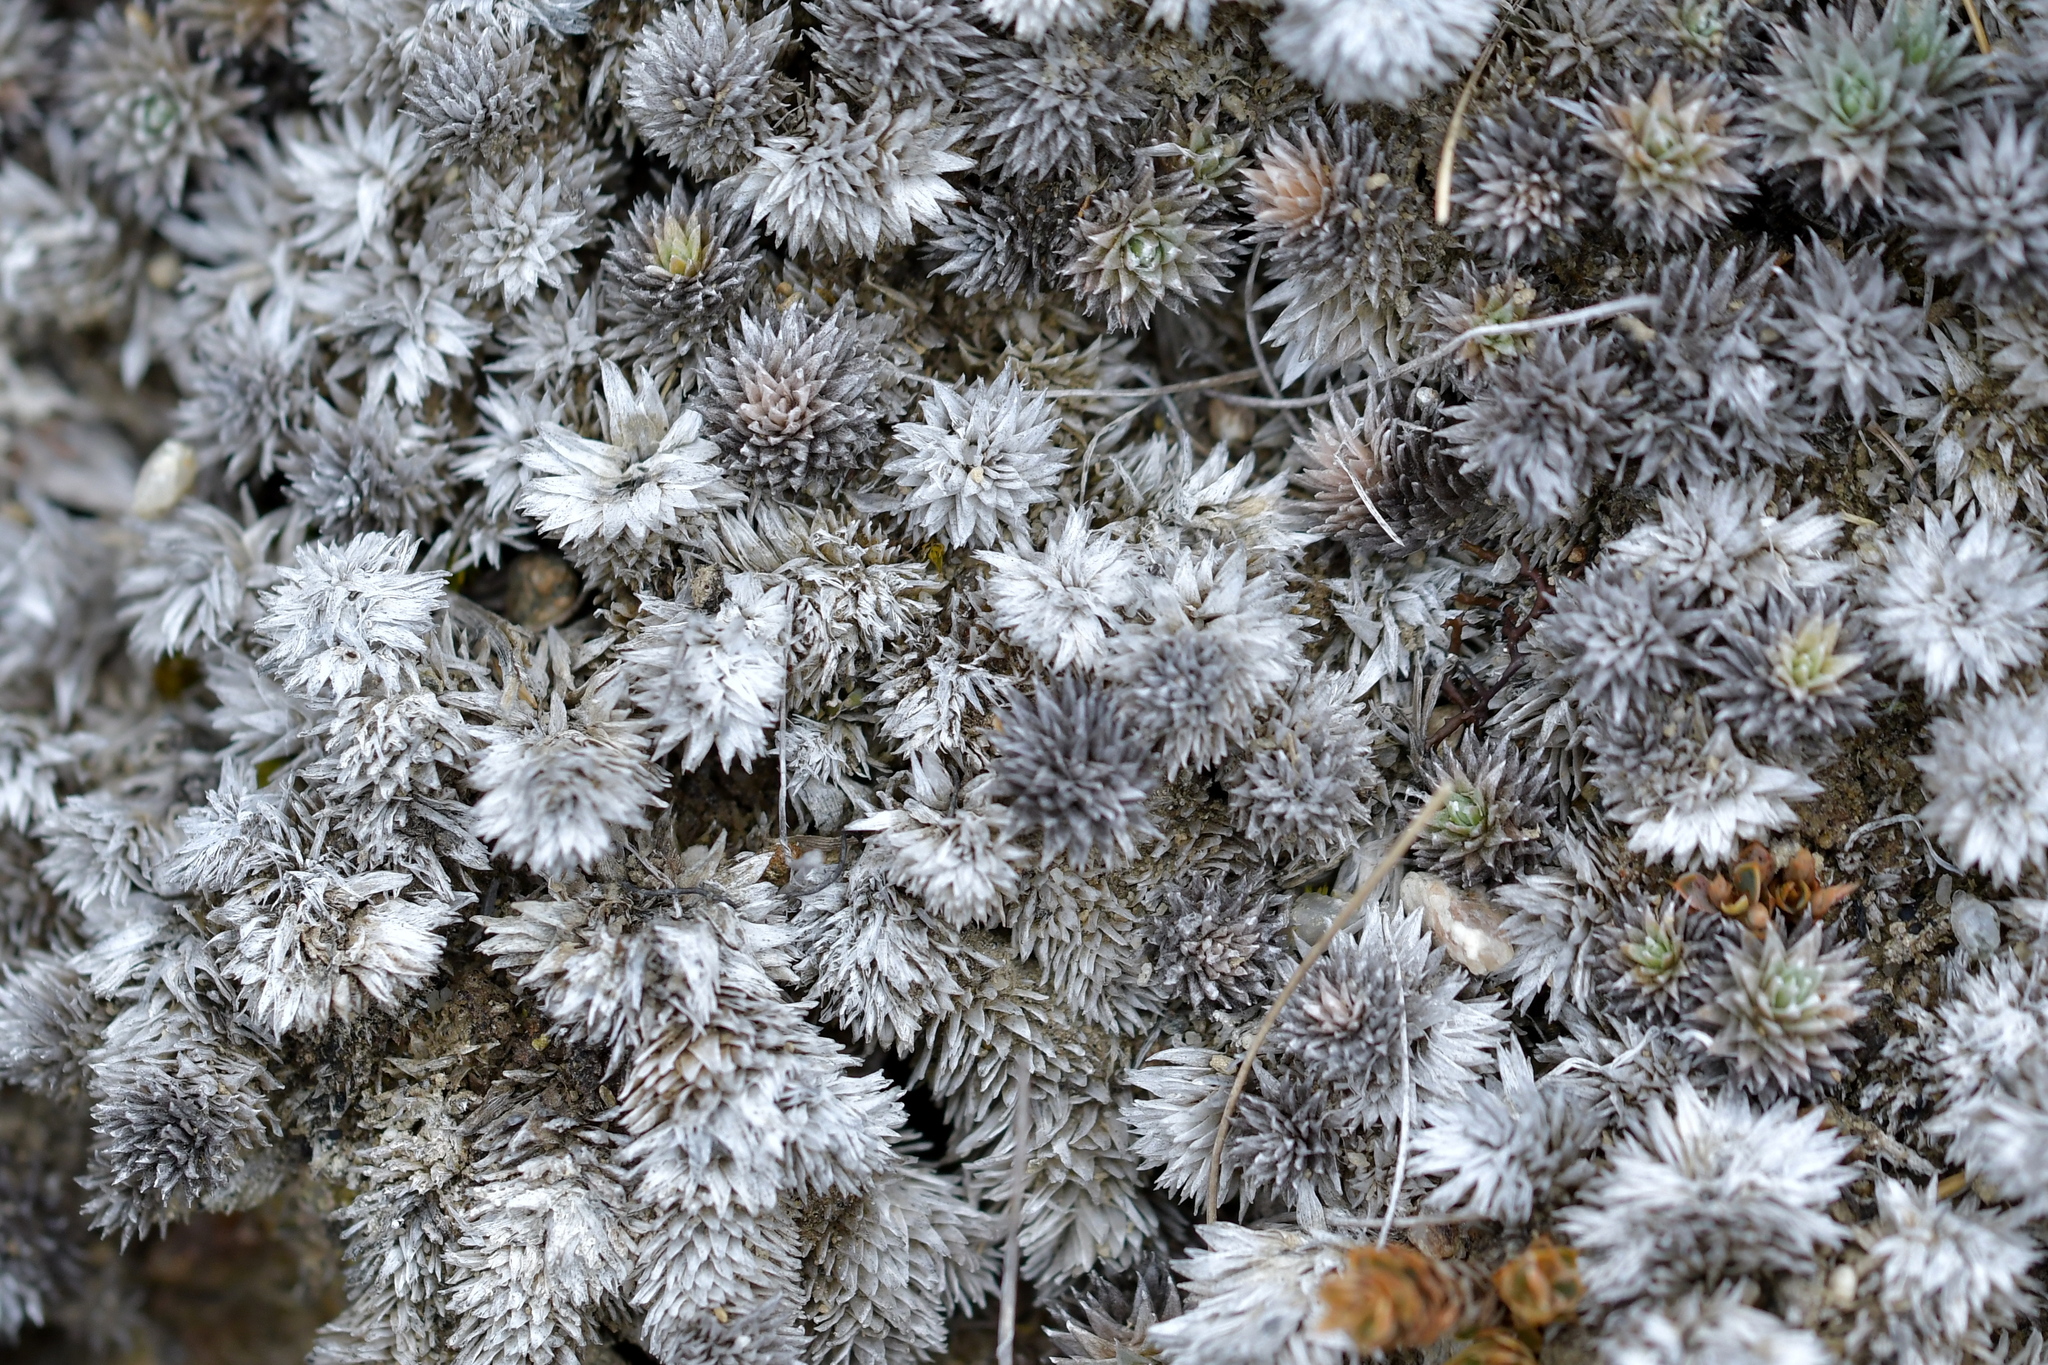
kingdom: Plantae
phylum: Tracheophyta
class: Magnoliopsida
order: Asterales
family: Asteraceae
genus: Raoulia
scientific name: Raoulia grandiflora
